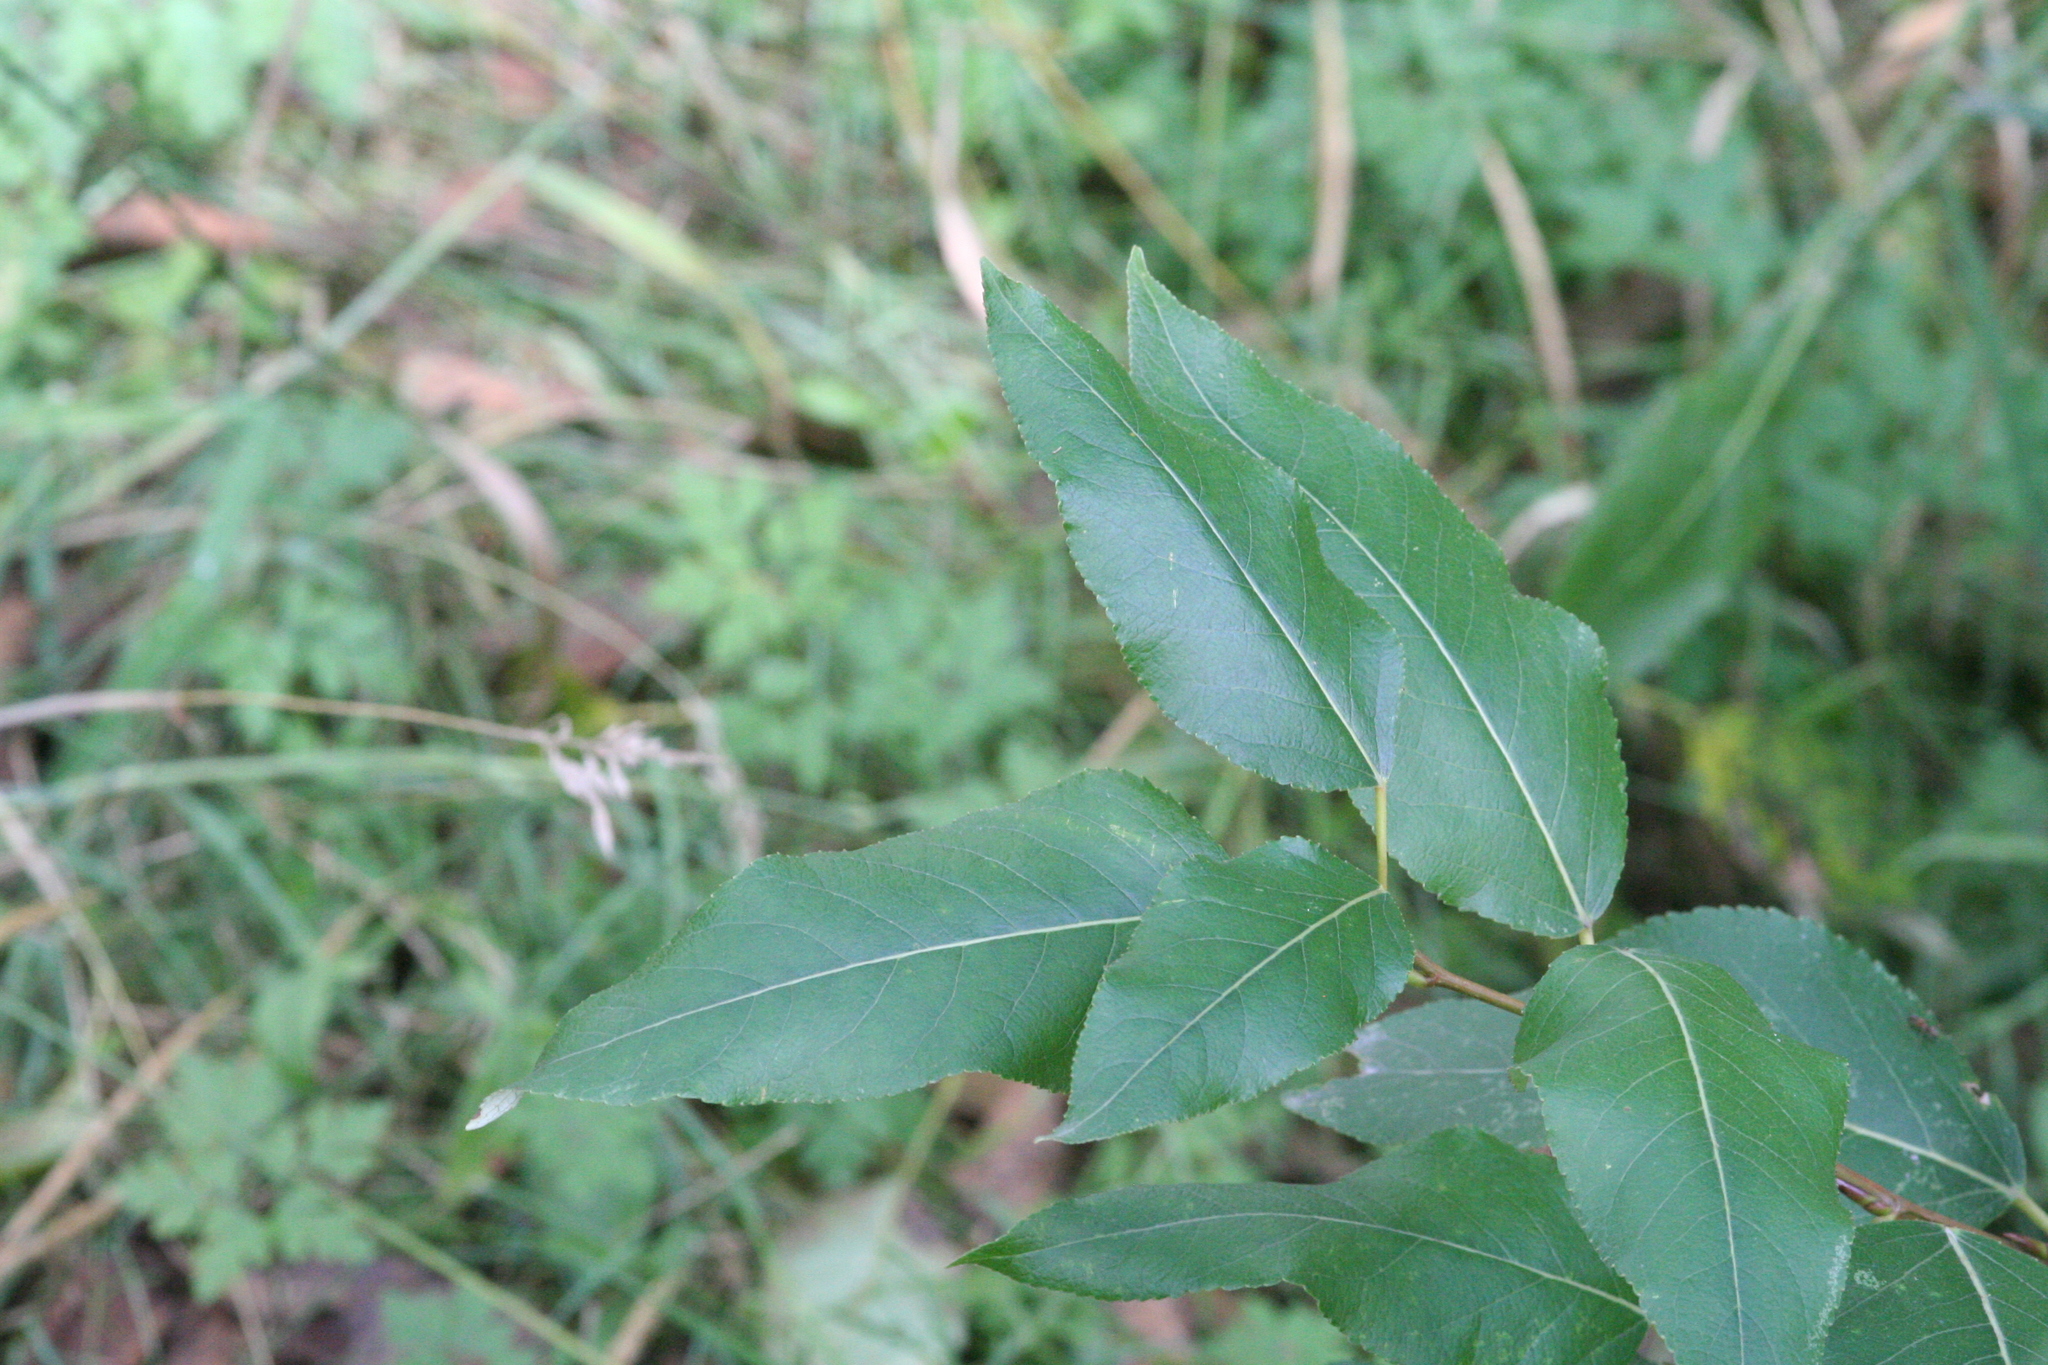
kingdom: Plantae
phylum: Tracheophyta
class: Magnoliopsida
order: Malpighiales
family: Salicaceae
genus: Populus
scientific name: Populus trichocarpa
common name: Black cottonwood
